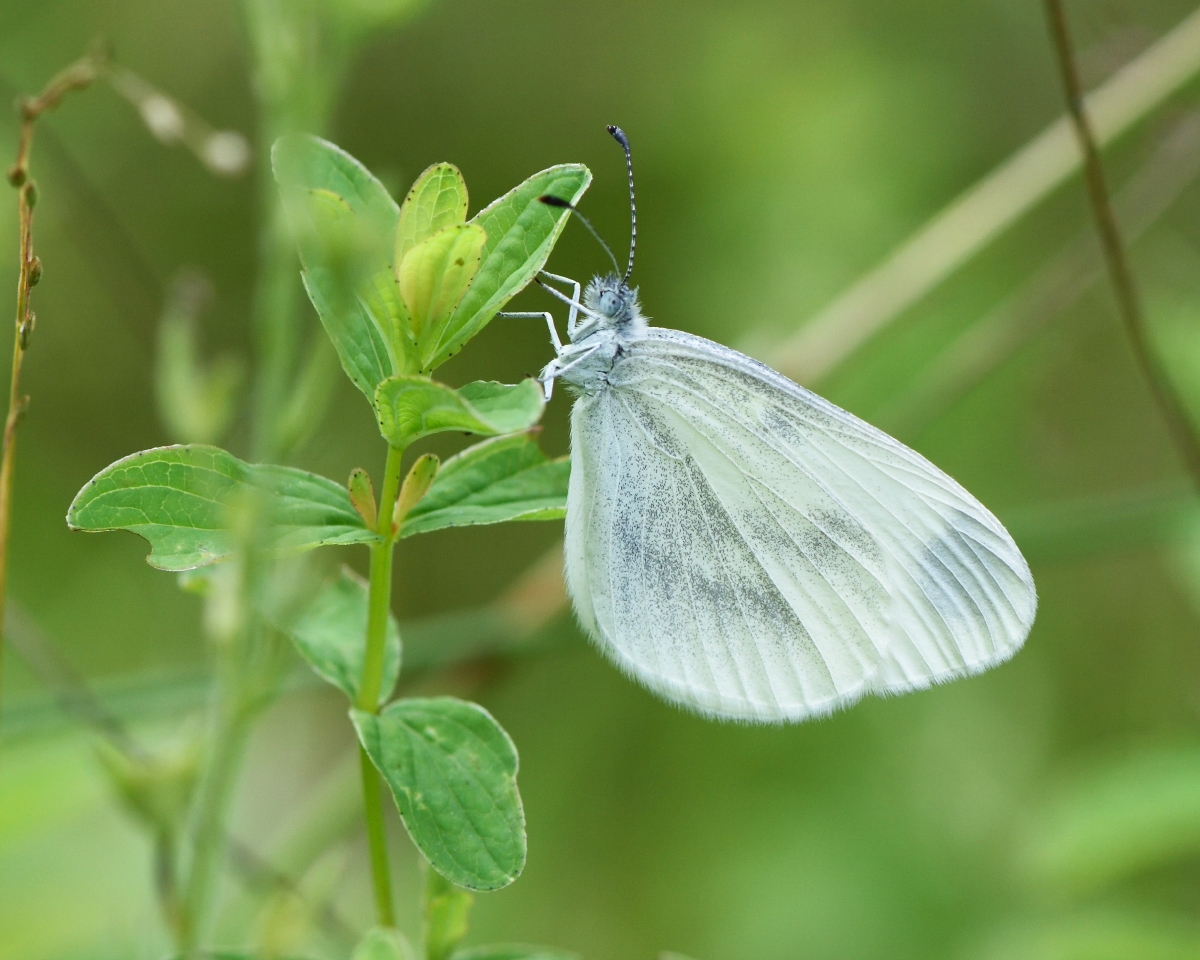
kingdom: Animalia
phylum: Arthropoda
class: Insecta
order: Lepidoptera
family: Pieridae
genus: Leptidea
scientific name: Leptidea
